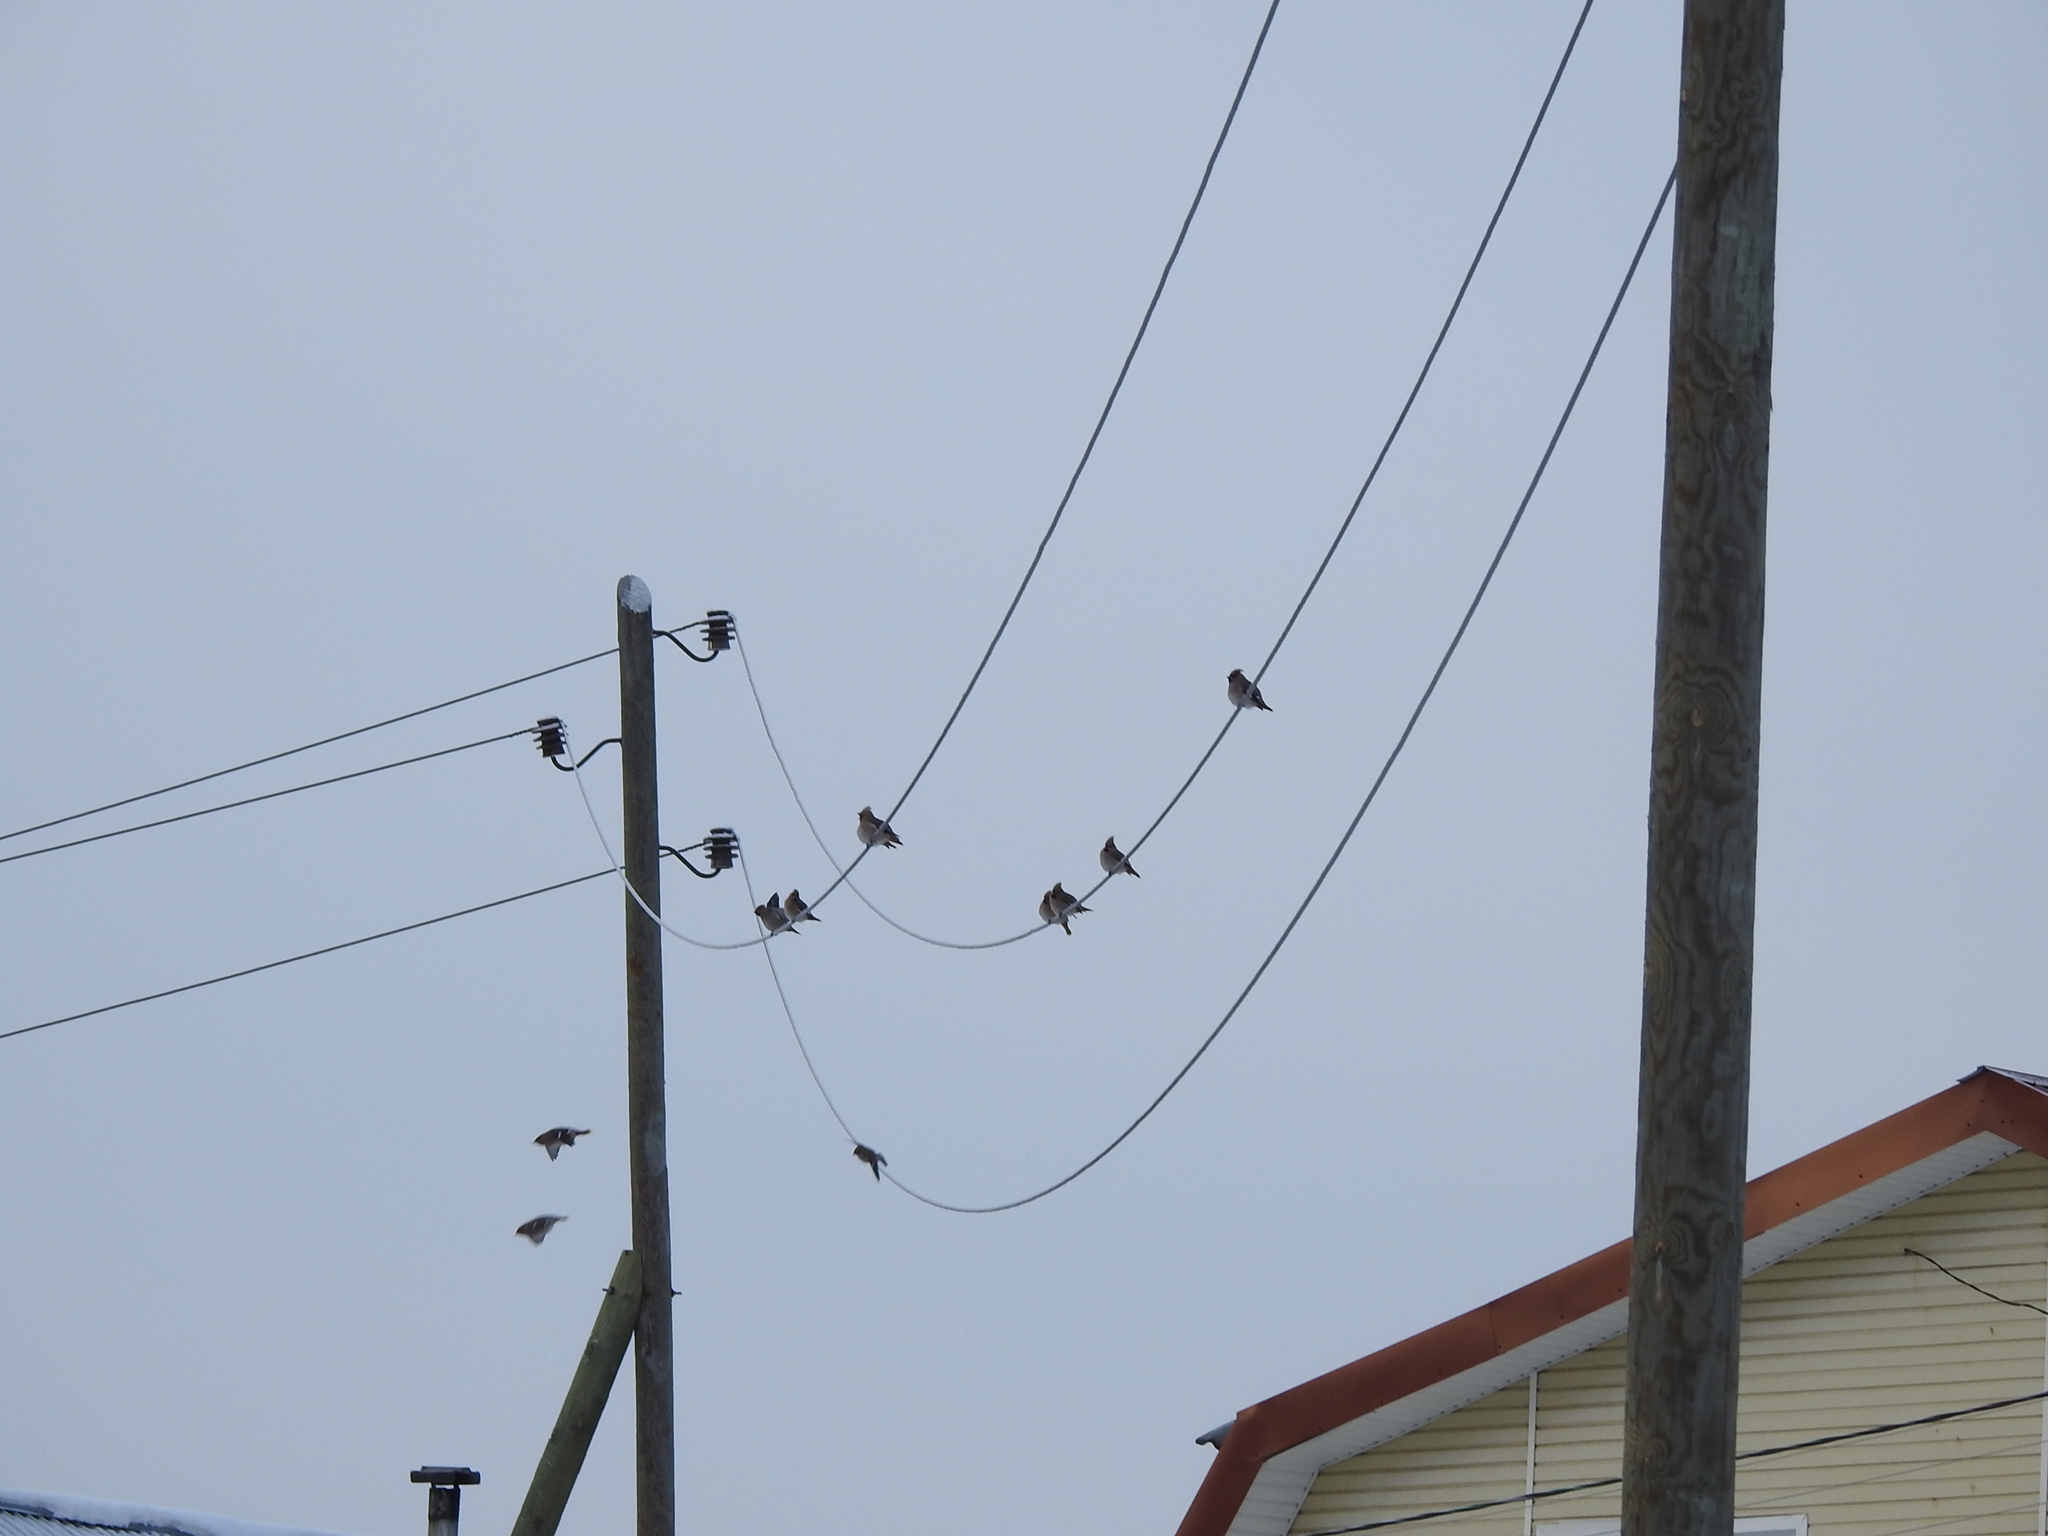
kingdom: Animalia
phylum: Chordata
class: Aves
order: Passeriformes
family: Bombycillidae
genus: Bombycilla
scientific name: Bombycilla garrulus
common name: Bohemian waxwing
